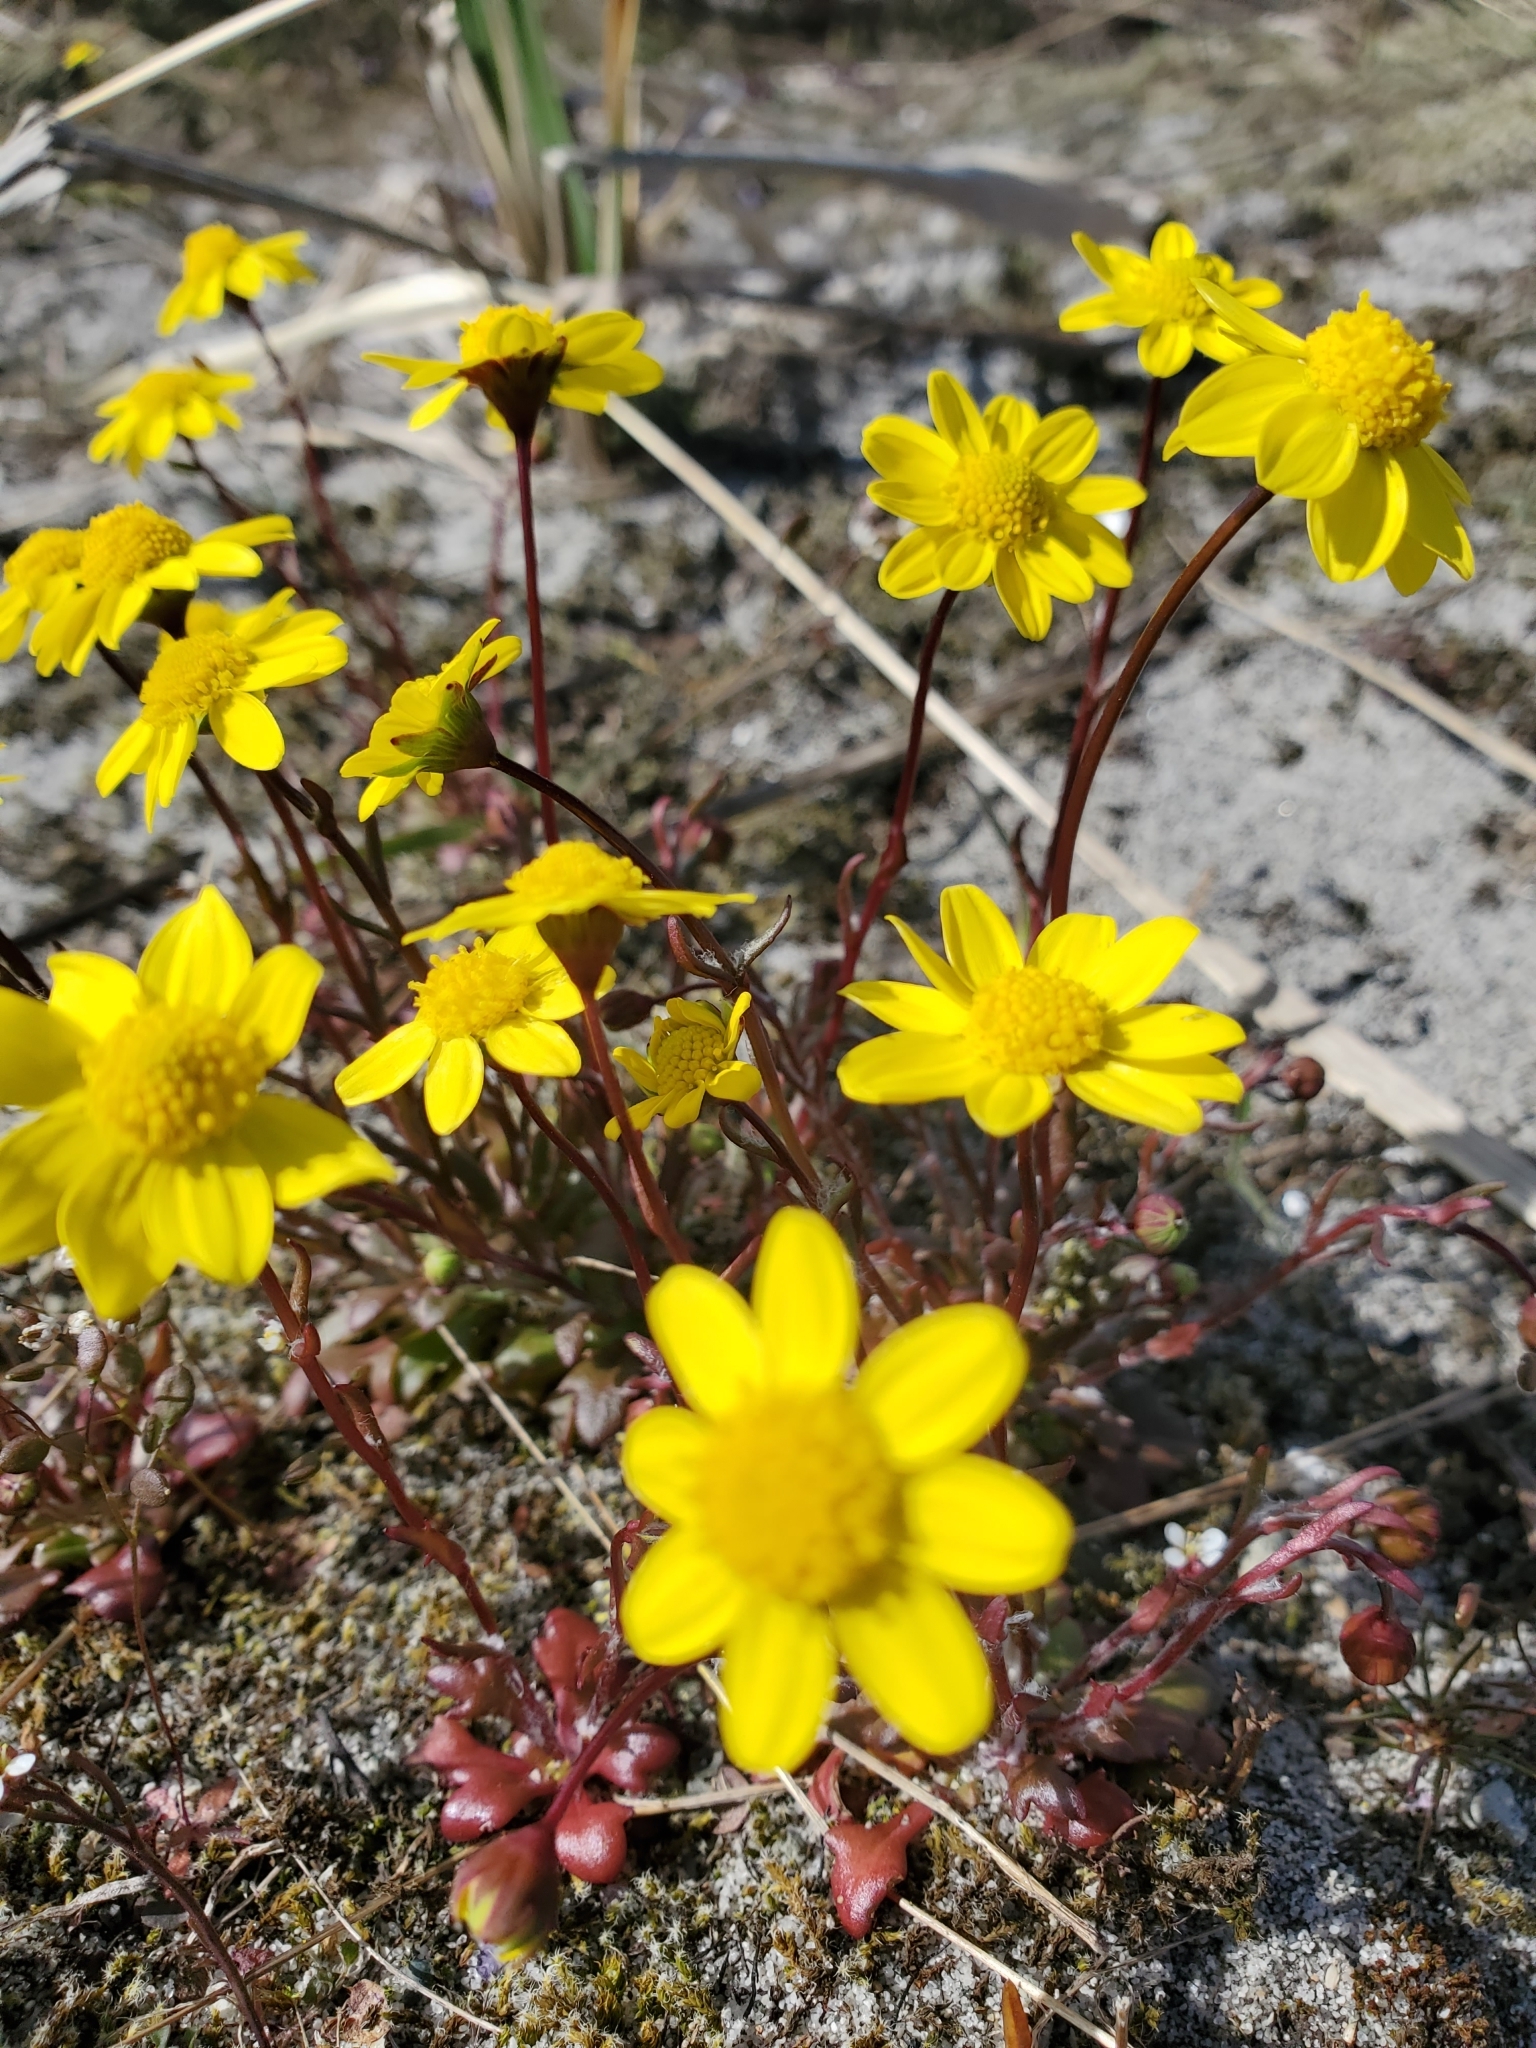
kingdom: Plantae
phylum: Tracheophyta
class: Magnoliopsida
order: Asterales
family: Asteraceae
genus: Crocidium
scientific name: Crocidium multicaule
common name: Common spring gold
